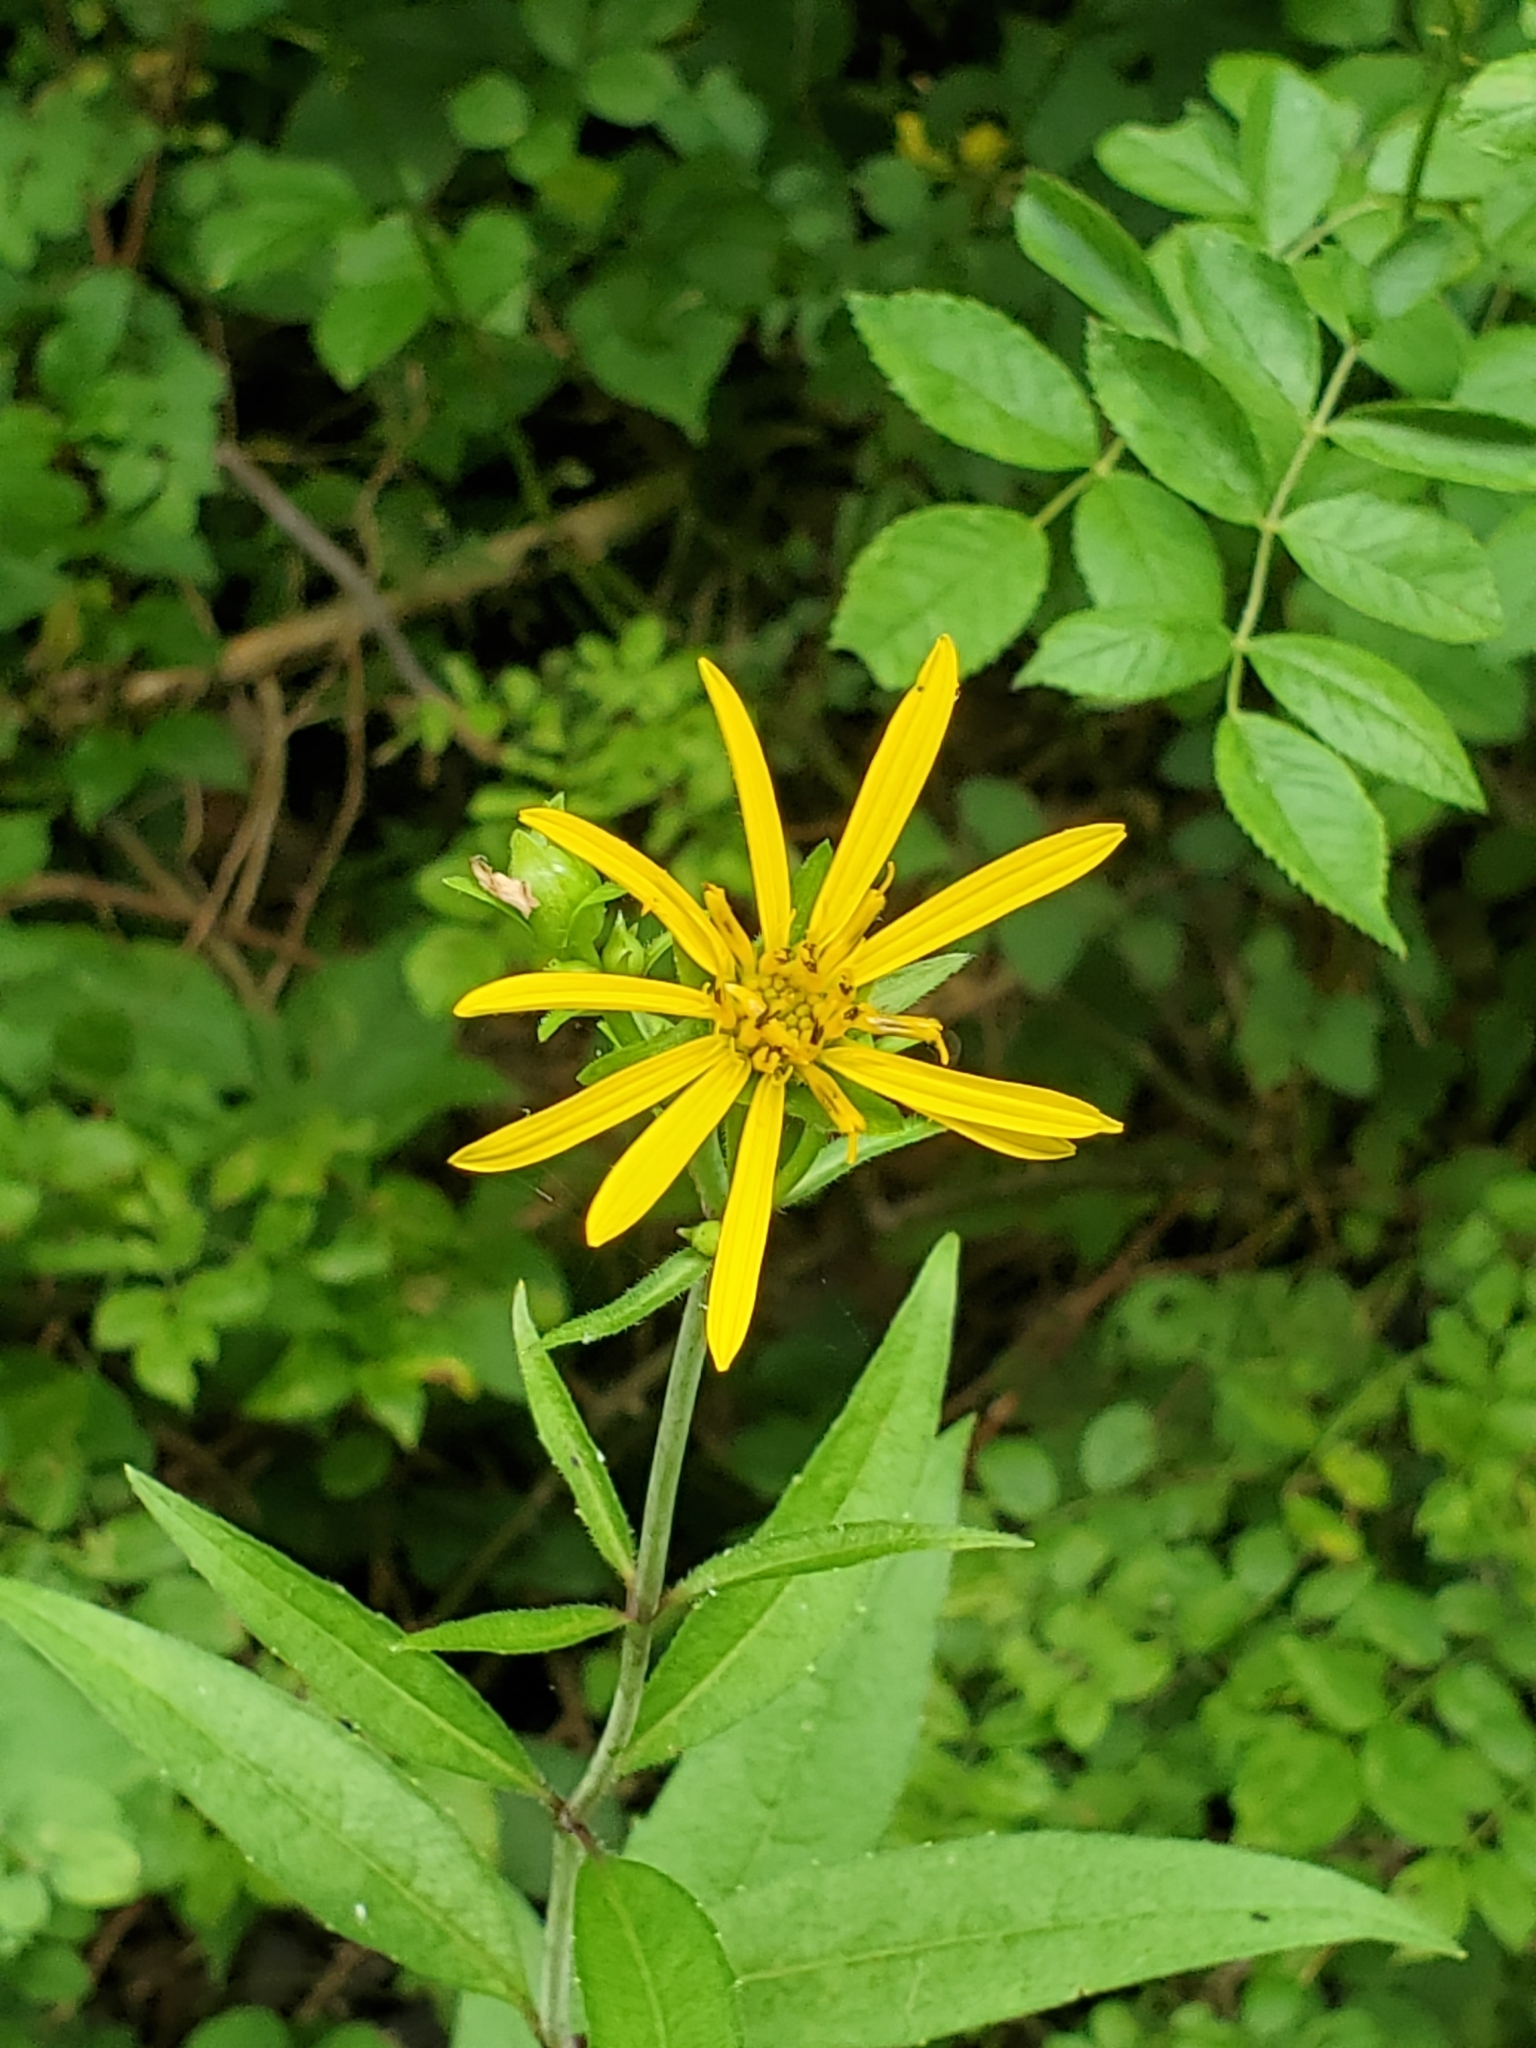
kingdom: Plantae
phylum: Tracheophyta
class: Magnoliopsida
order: Asterales
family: Asteraceae
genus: Silphium
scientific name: Silphium asteriscus
